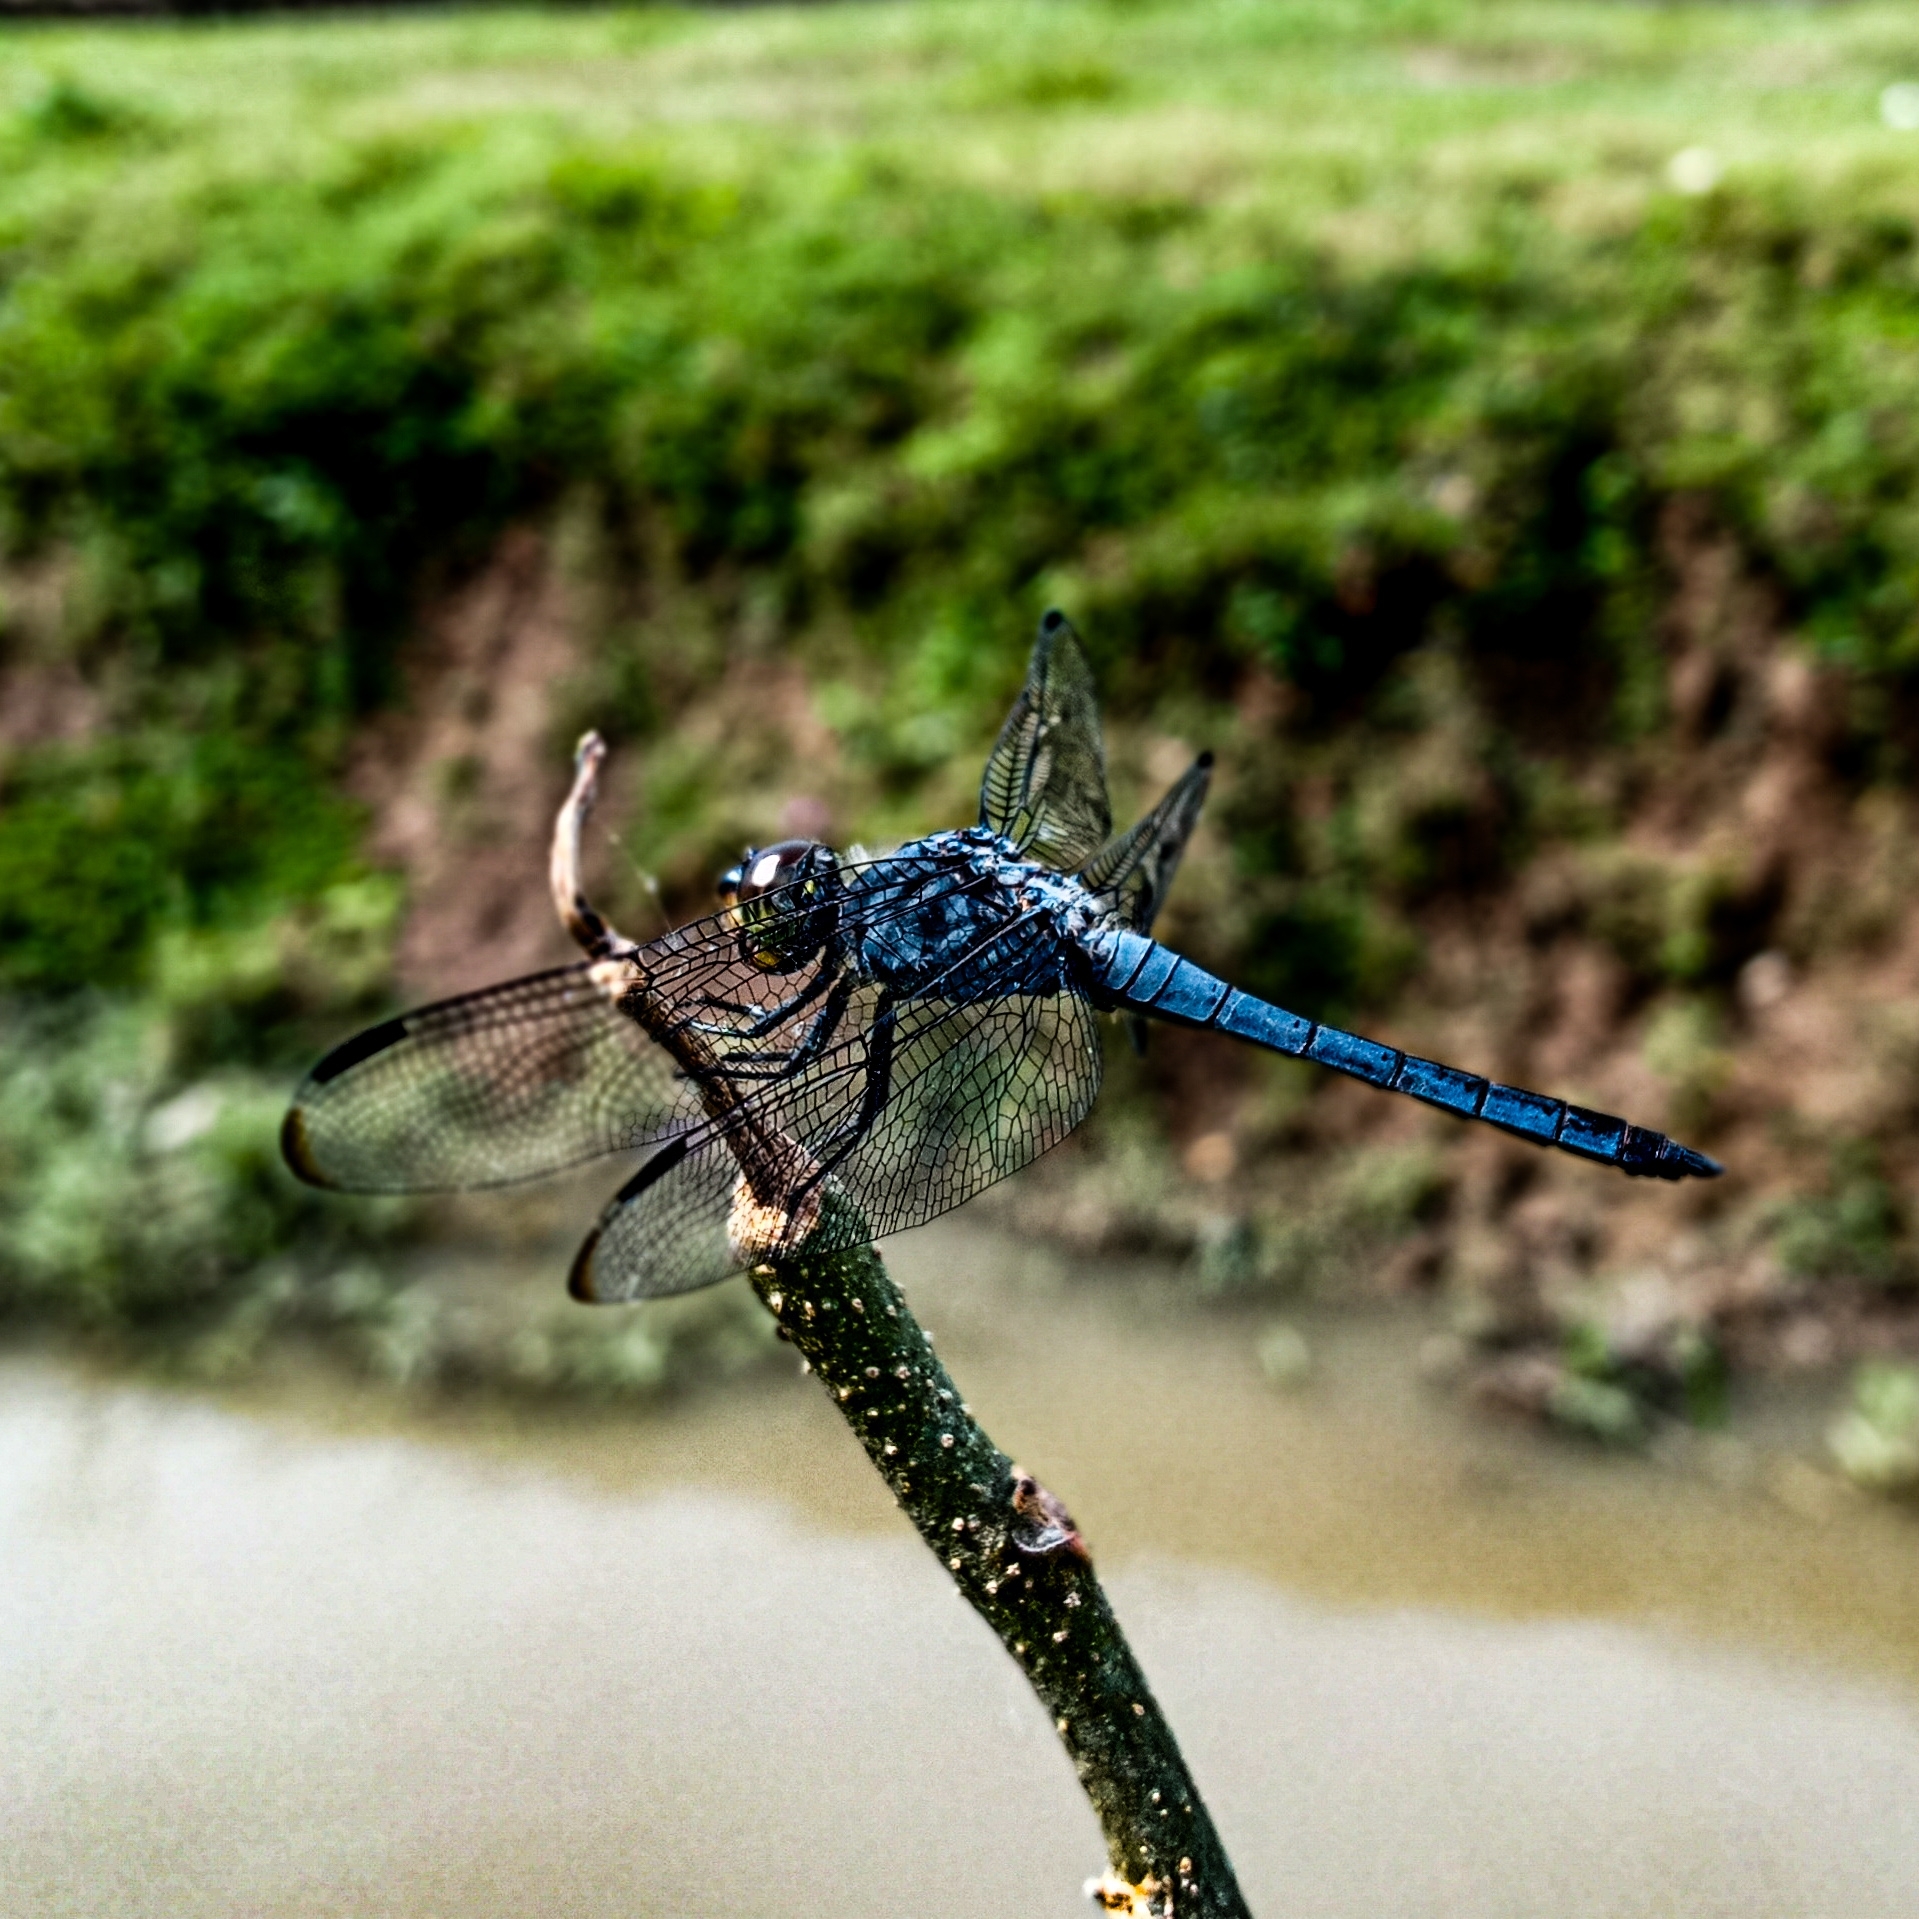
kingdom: Animalia
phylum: Arthropoda
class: Insecta
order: Odonata
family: Libellulidae
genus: Potamarcha
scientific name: Potamarcha congener
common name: Blue chaser
